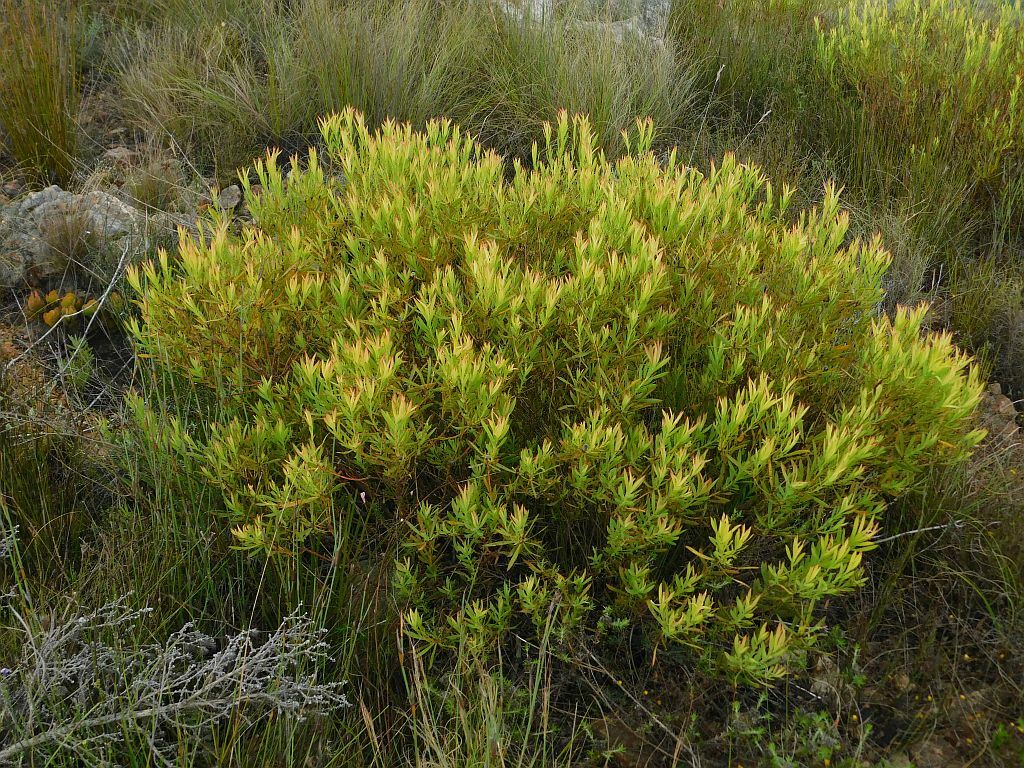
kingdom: Plantae
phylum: Tracheophyta
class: Magnoliopsida
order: Proteales
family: Proteaceae
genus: Leucadendron
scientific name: Leucadendron salignum
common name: Common sunshine conebush
